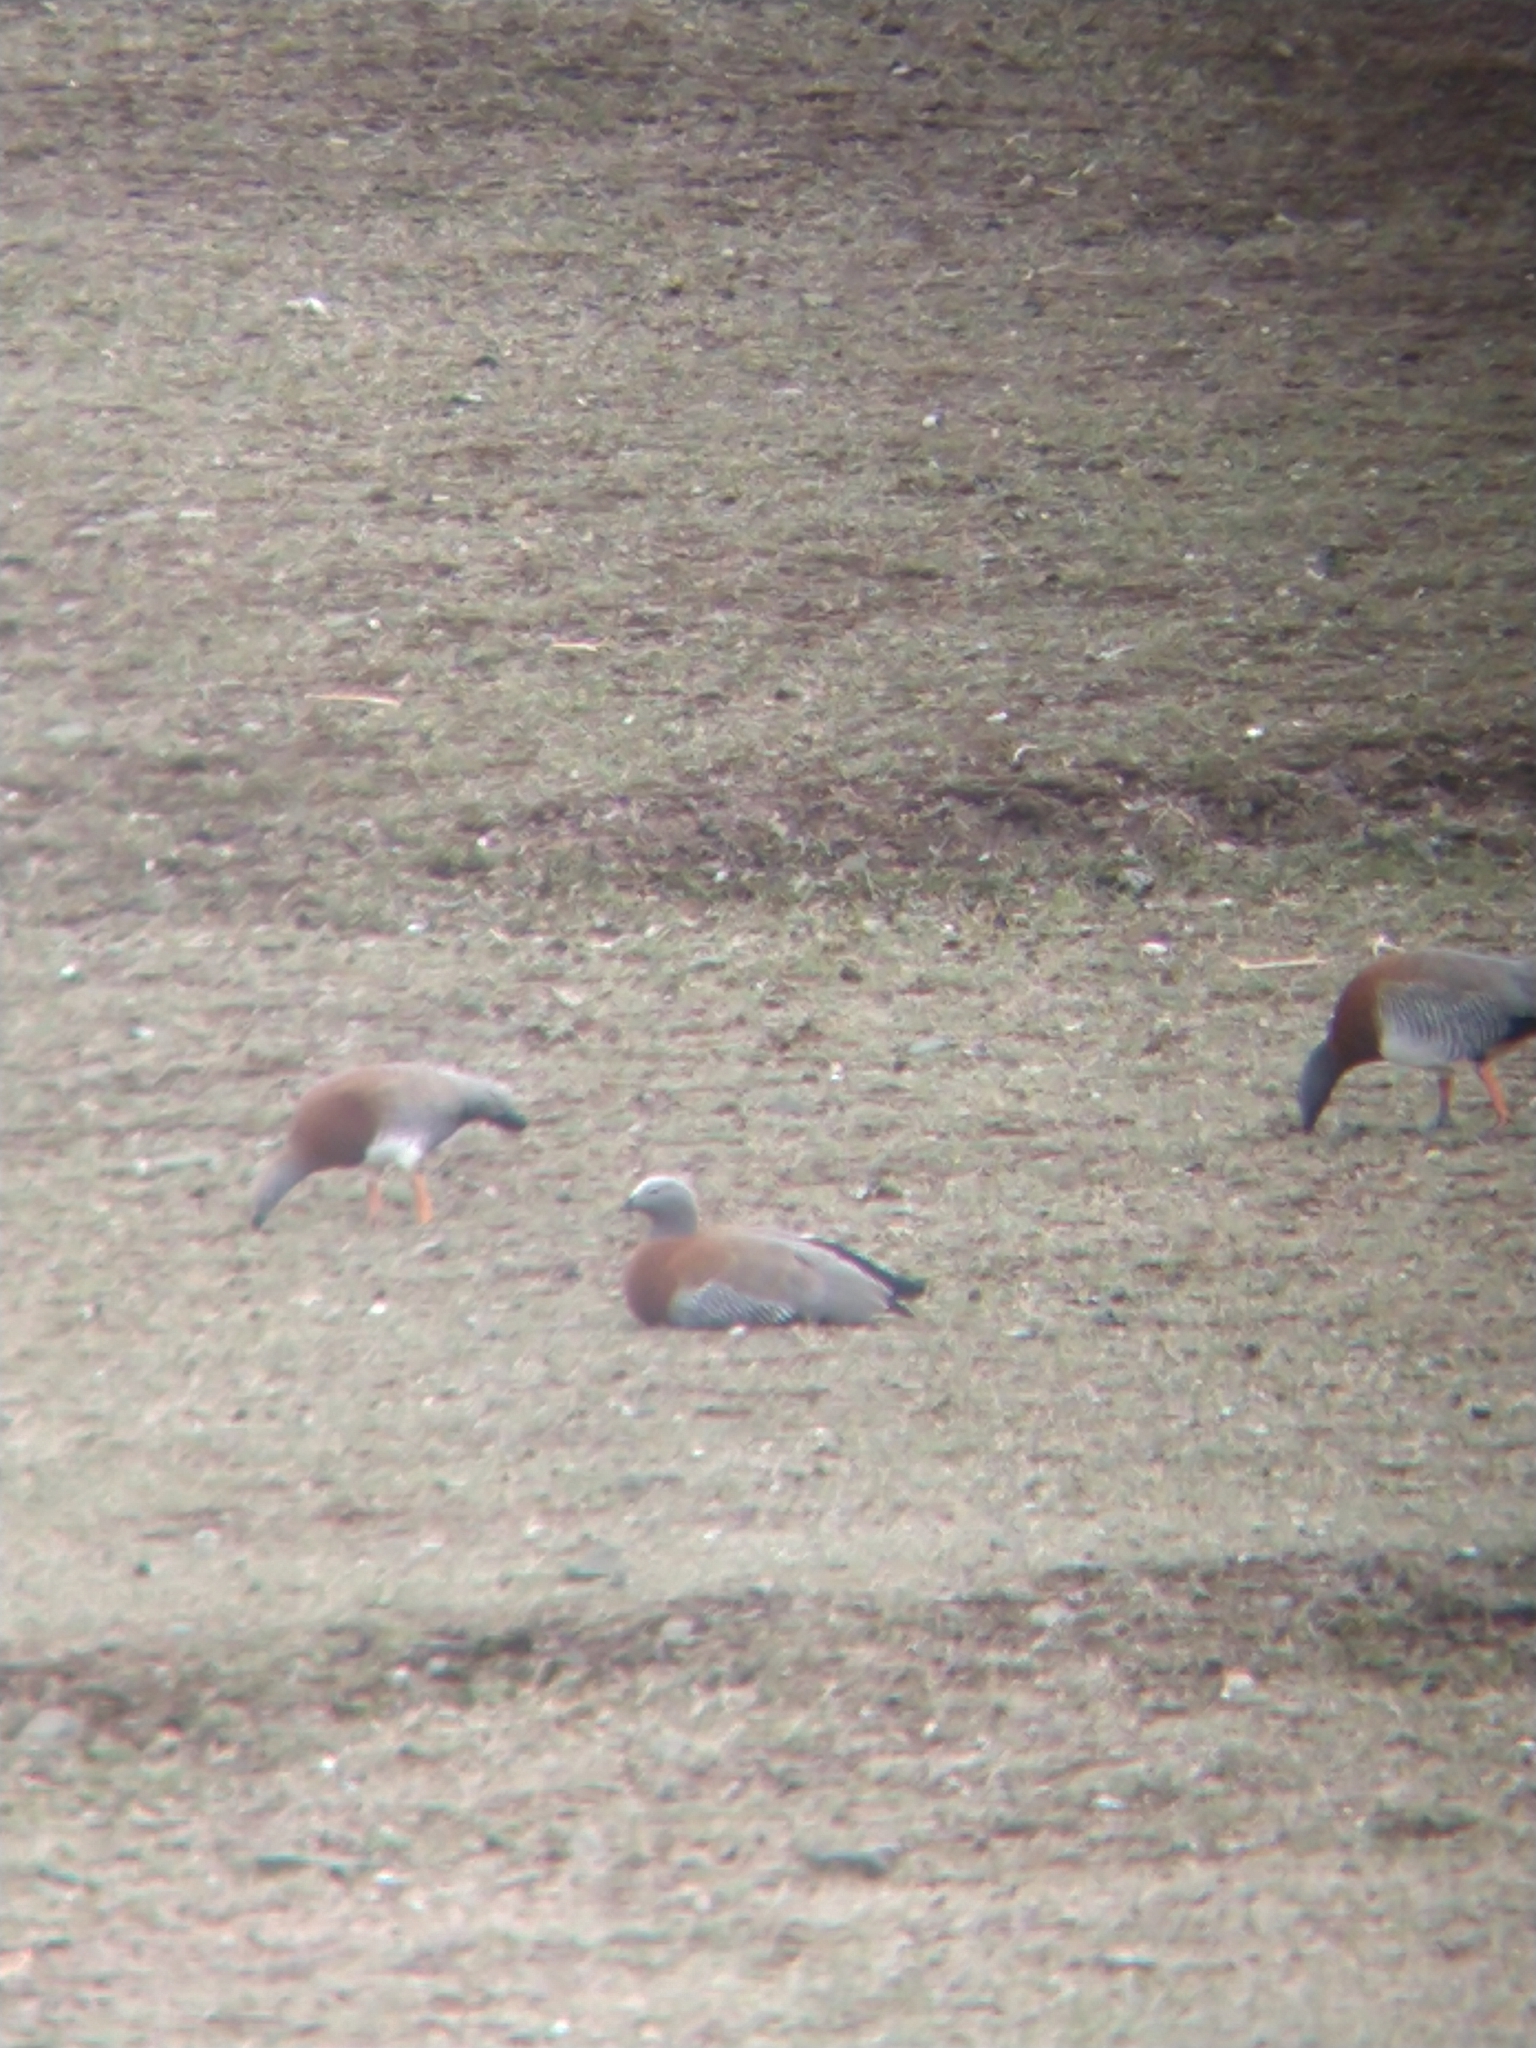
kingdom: Animalia
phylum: Chordata
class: Aves
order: Anseriformes
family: Anatidae
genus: Chloephaga
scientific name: Chloephaga poliocephala
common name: Ashy-headed goose
